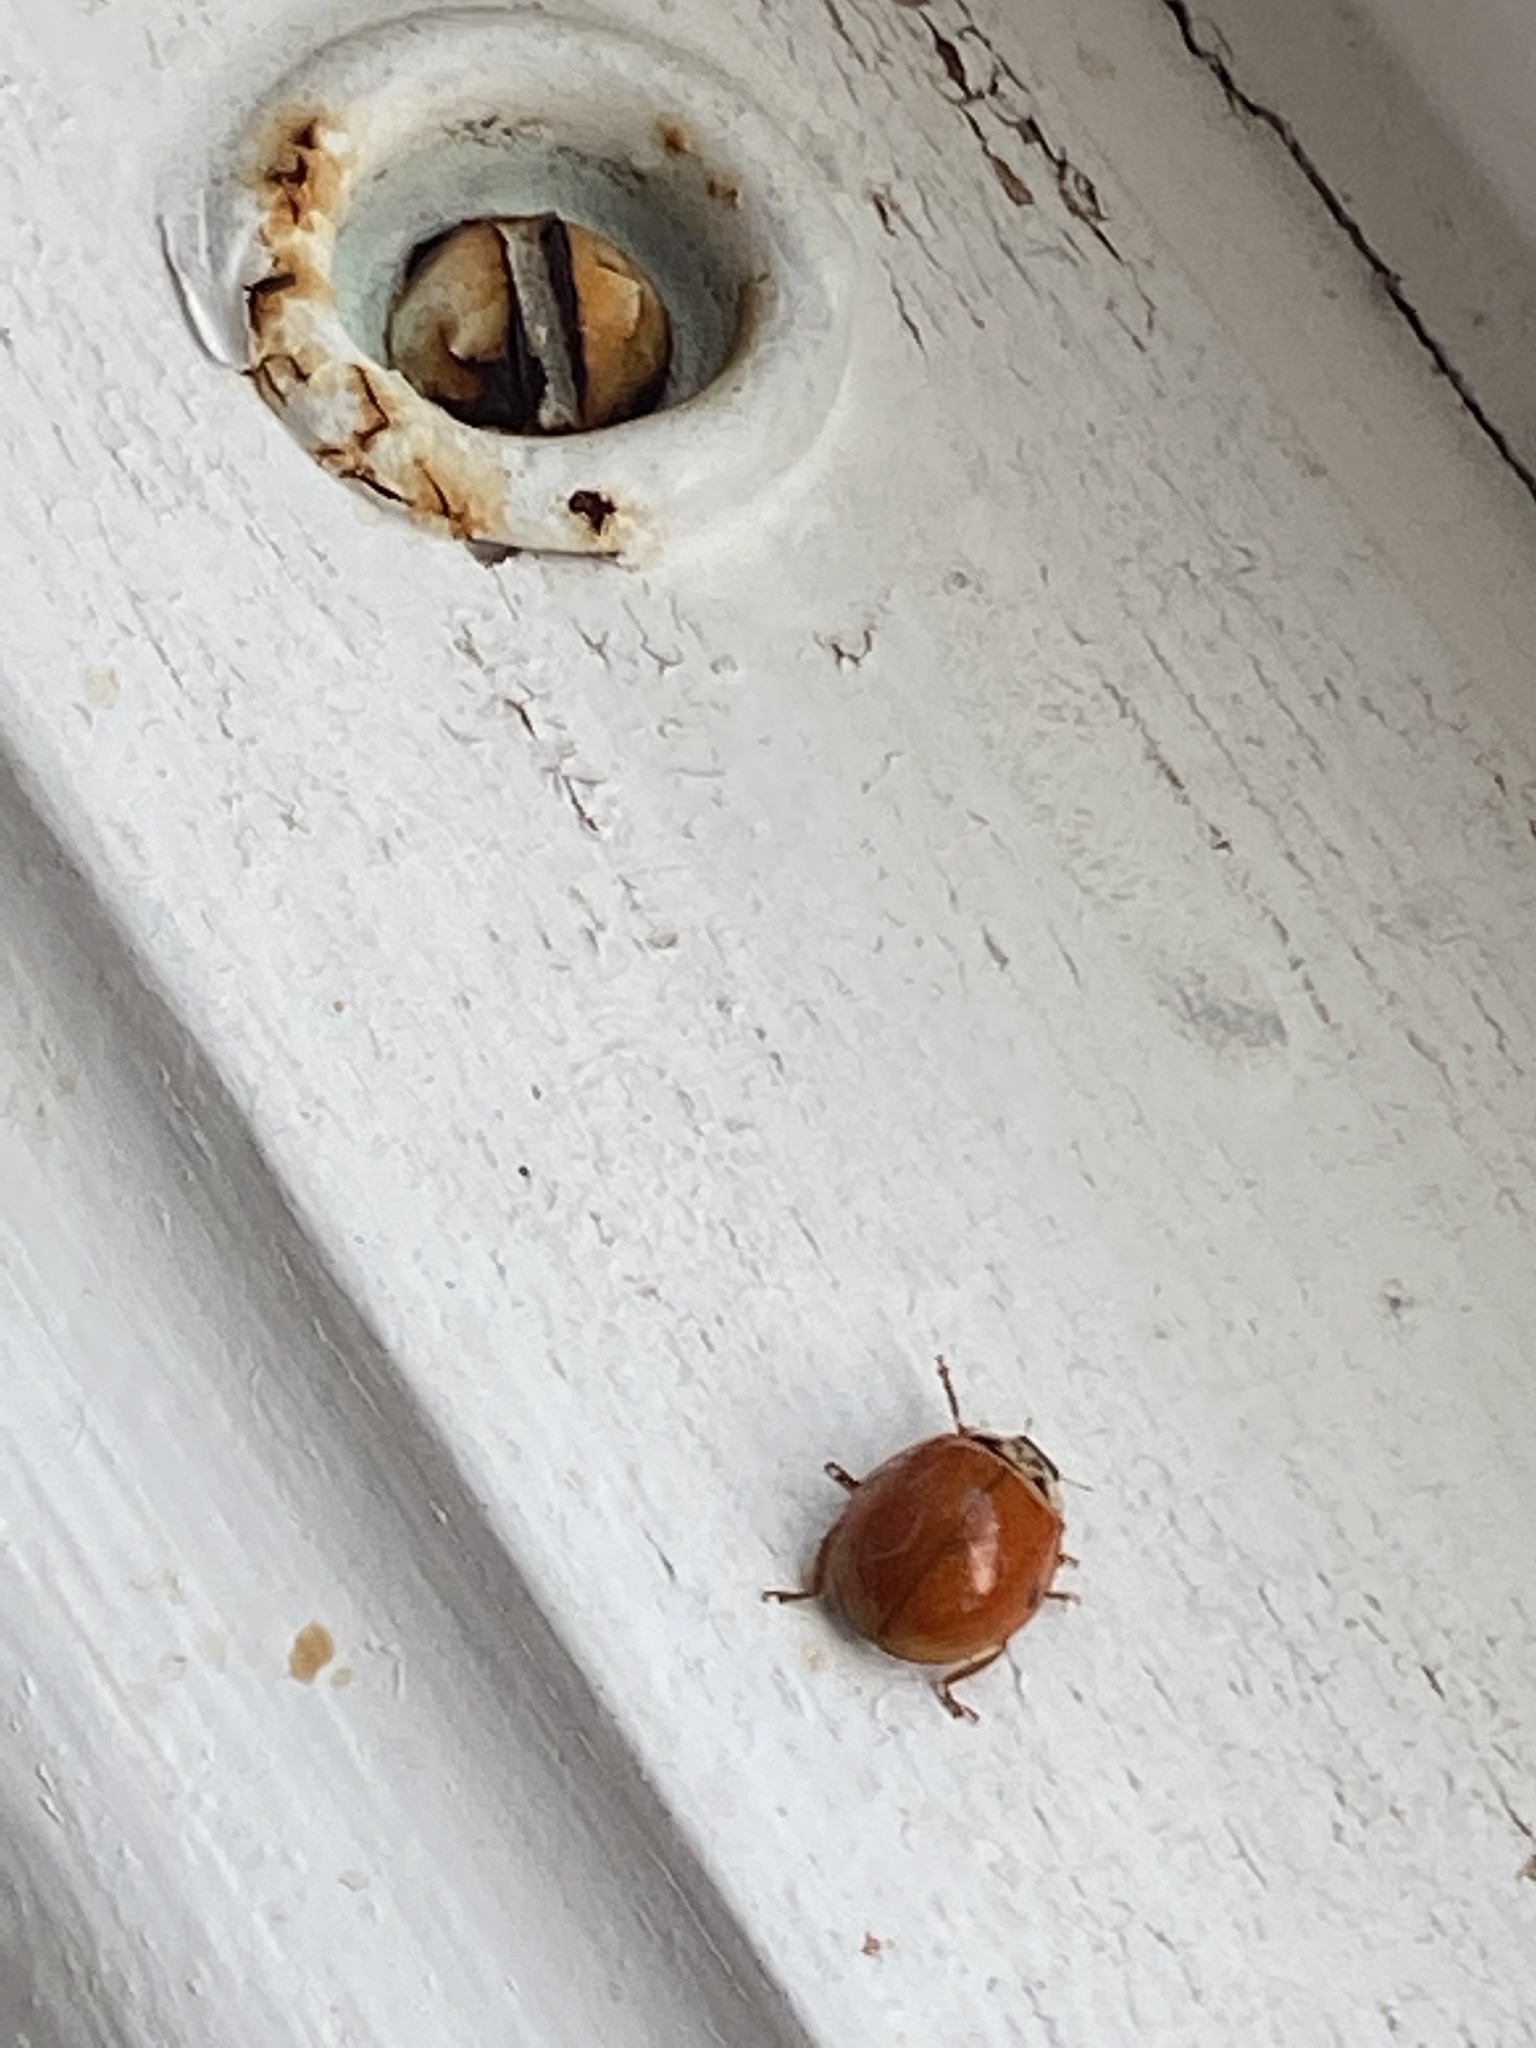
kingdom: Animalia
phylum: Arthropoda
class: Insecta
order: Coleoptera
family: Coccinellidae
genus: Harmonia
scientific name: Harmonia axyridis
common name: Harlequin ladybird
